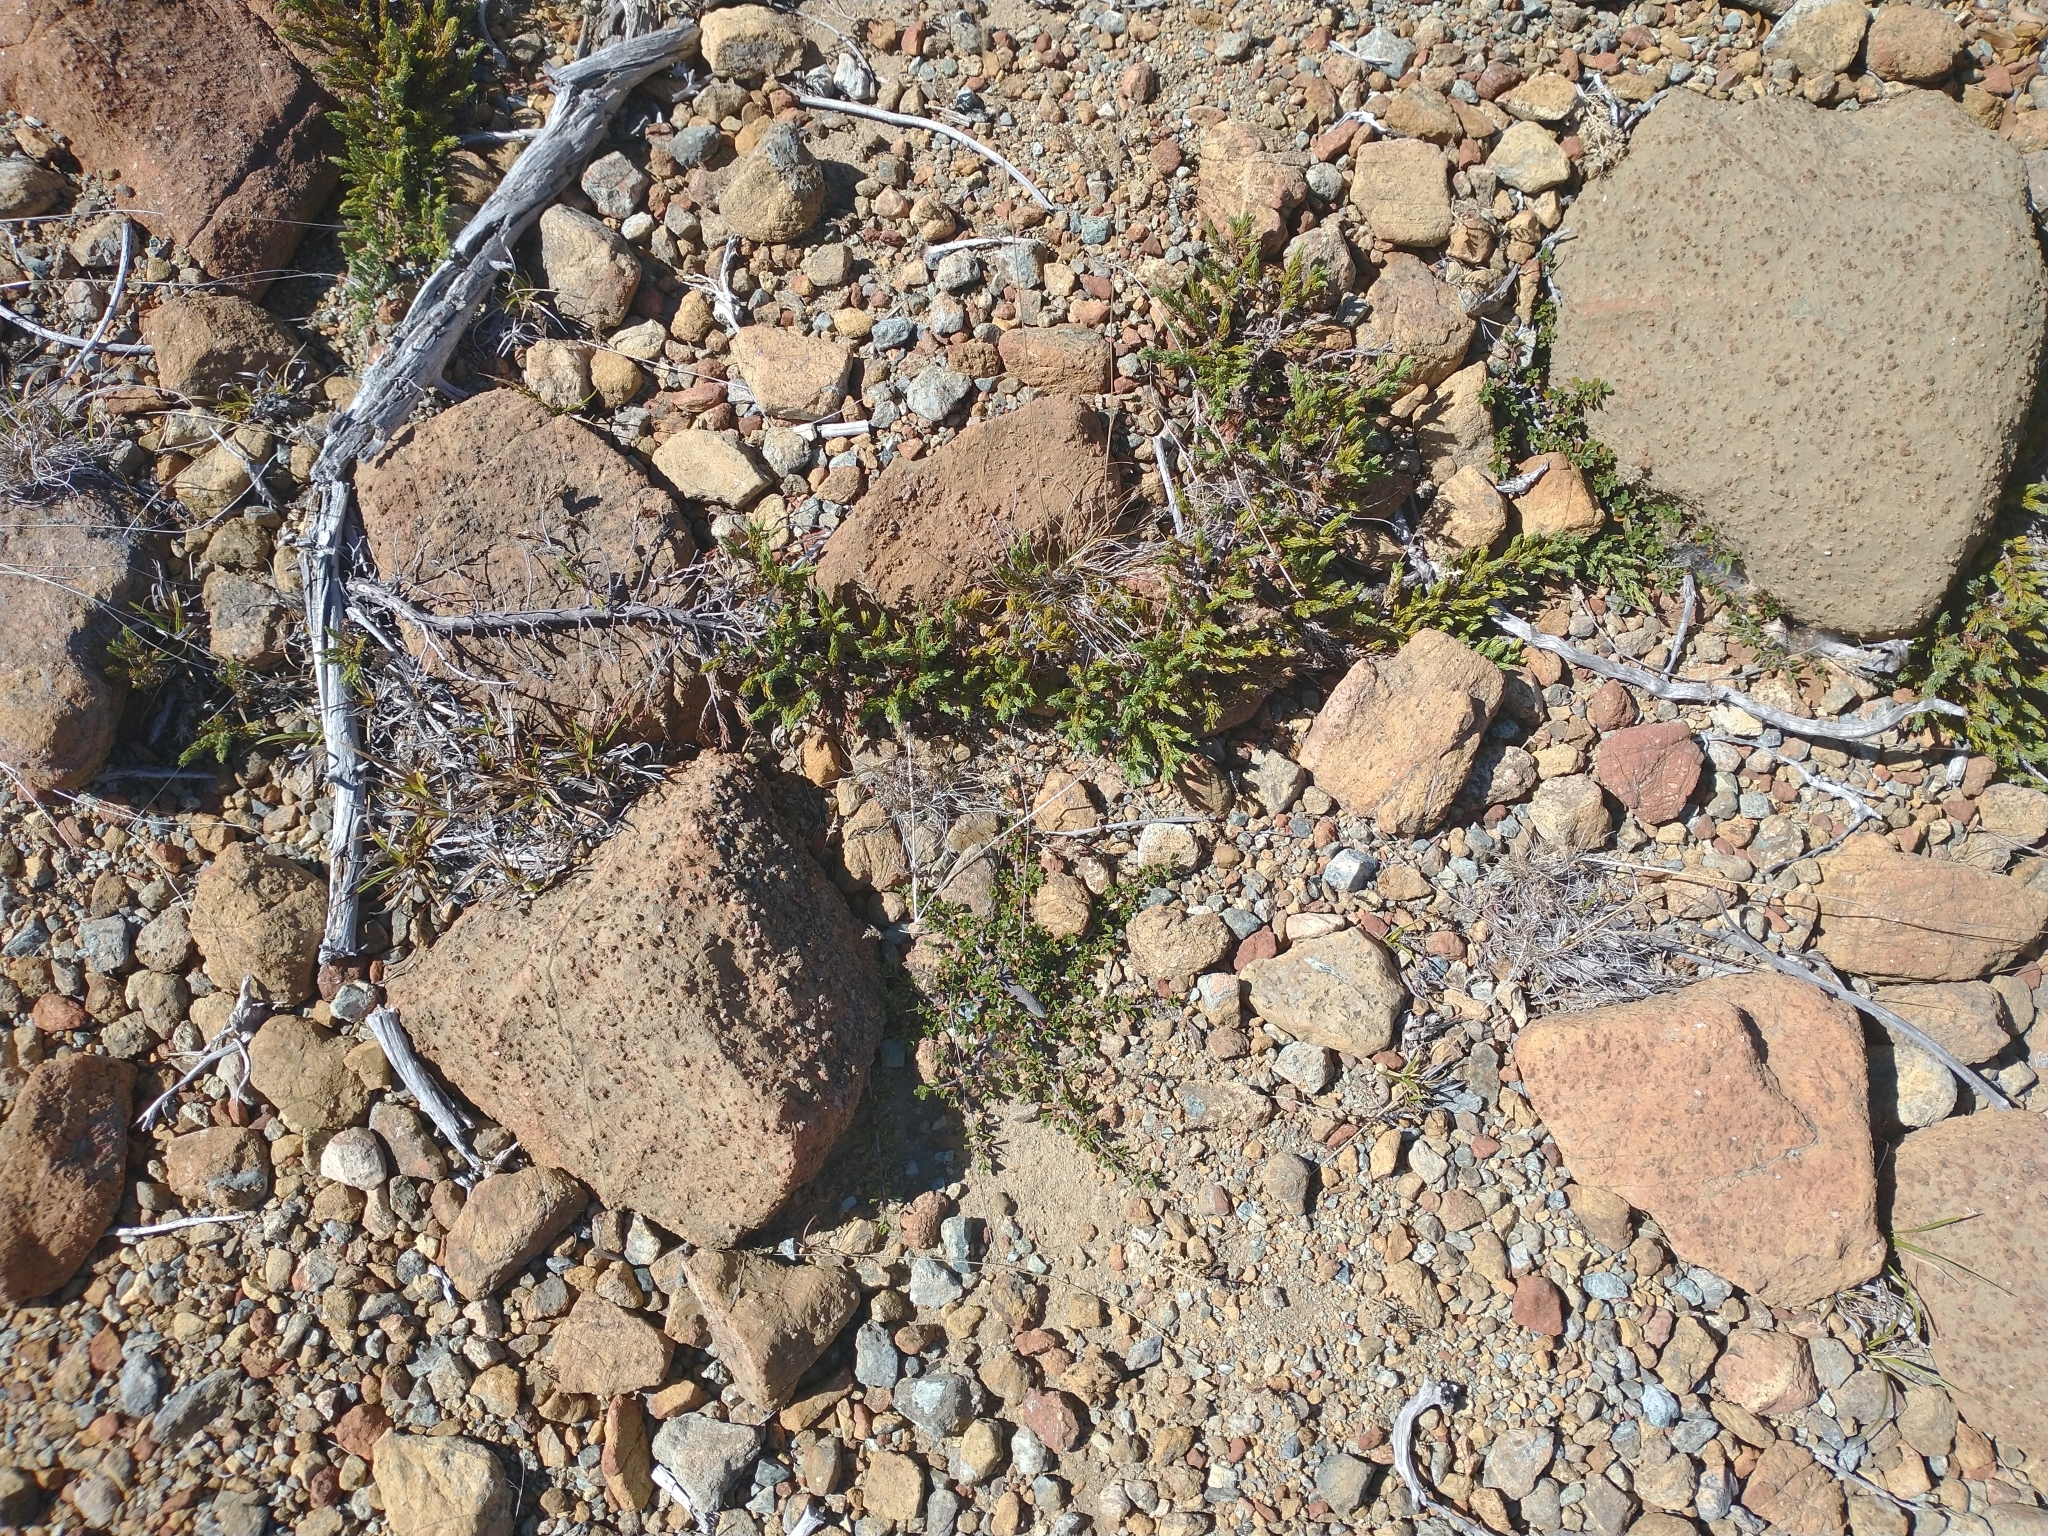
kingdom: Plantae
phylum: Tracheophyta
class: Magnoliopsida
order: Rosales
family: Rhamnaceae
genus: Ceanothus
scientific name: Ceanothus pumilus
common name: Siskiyou-mat
